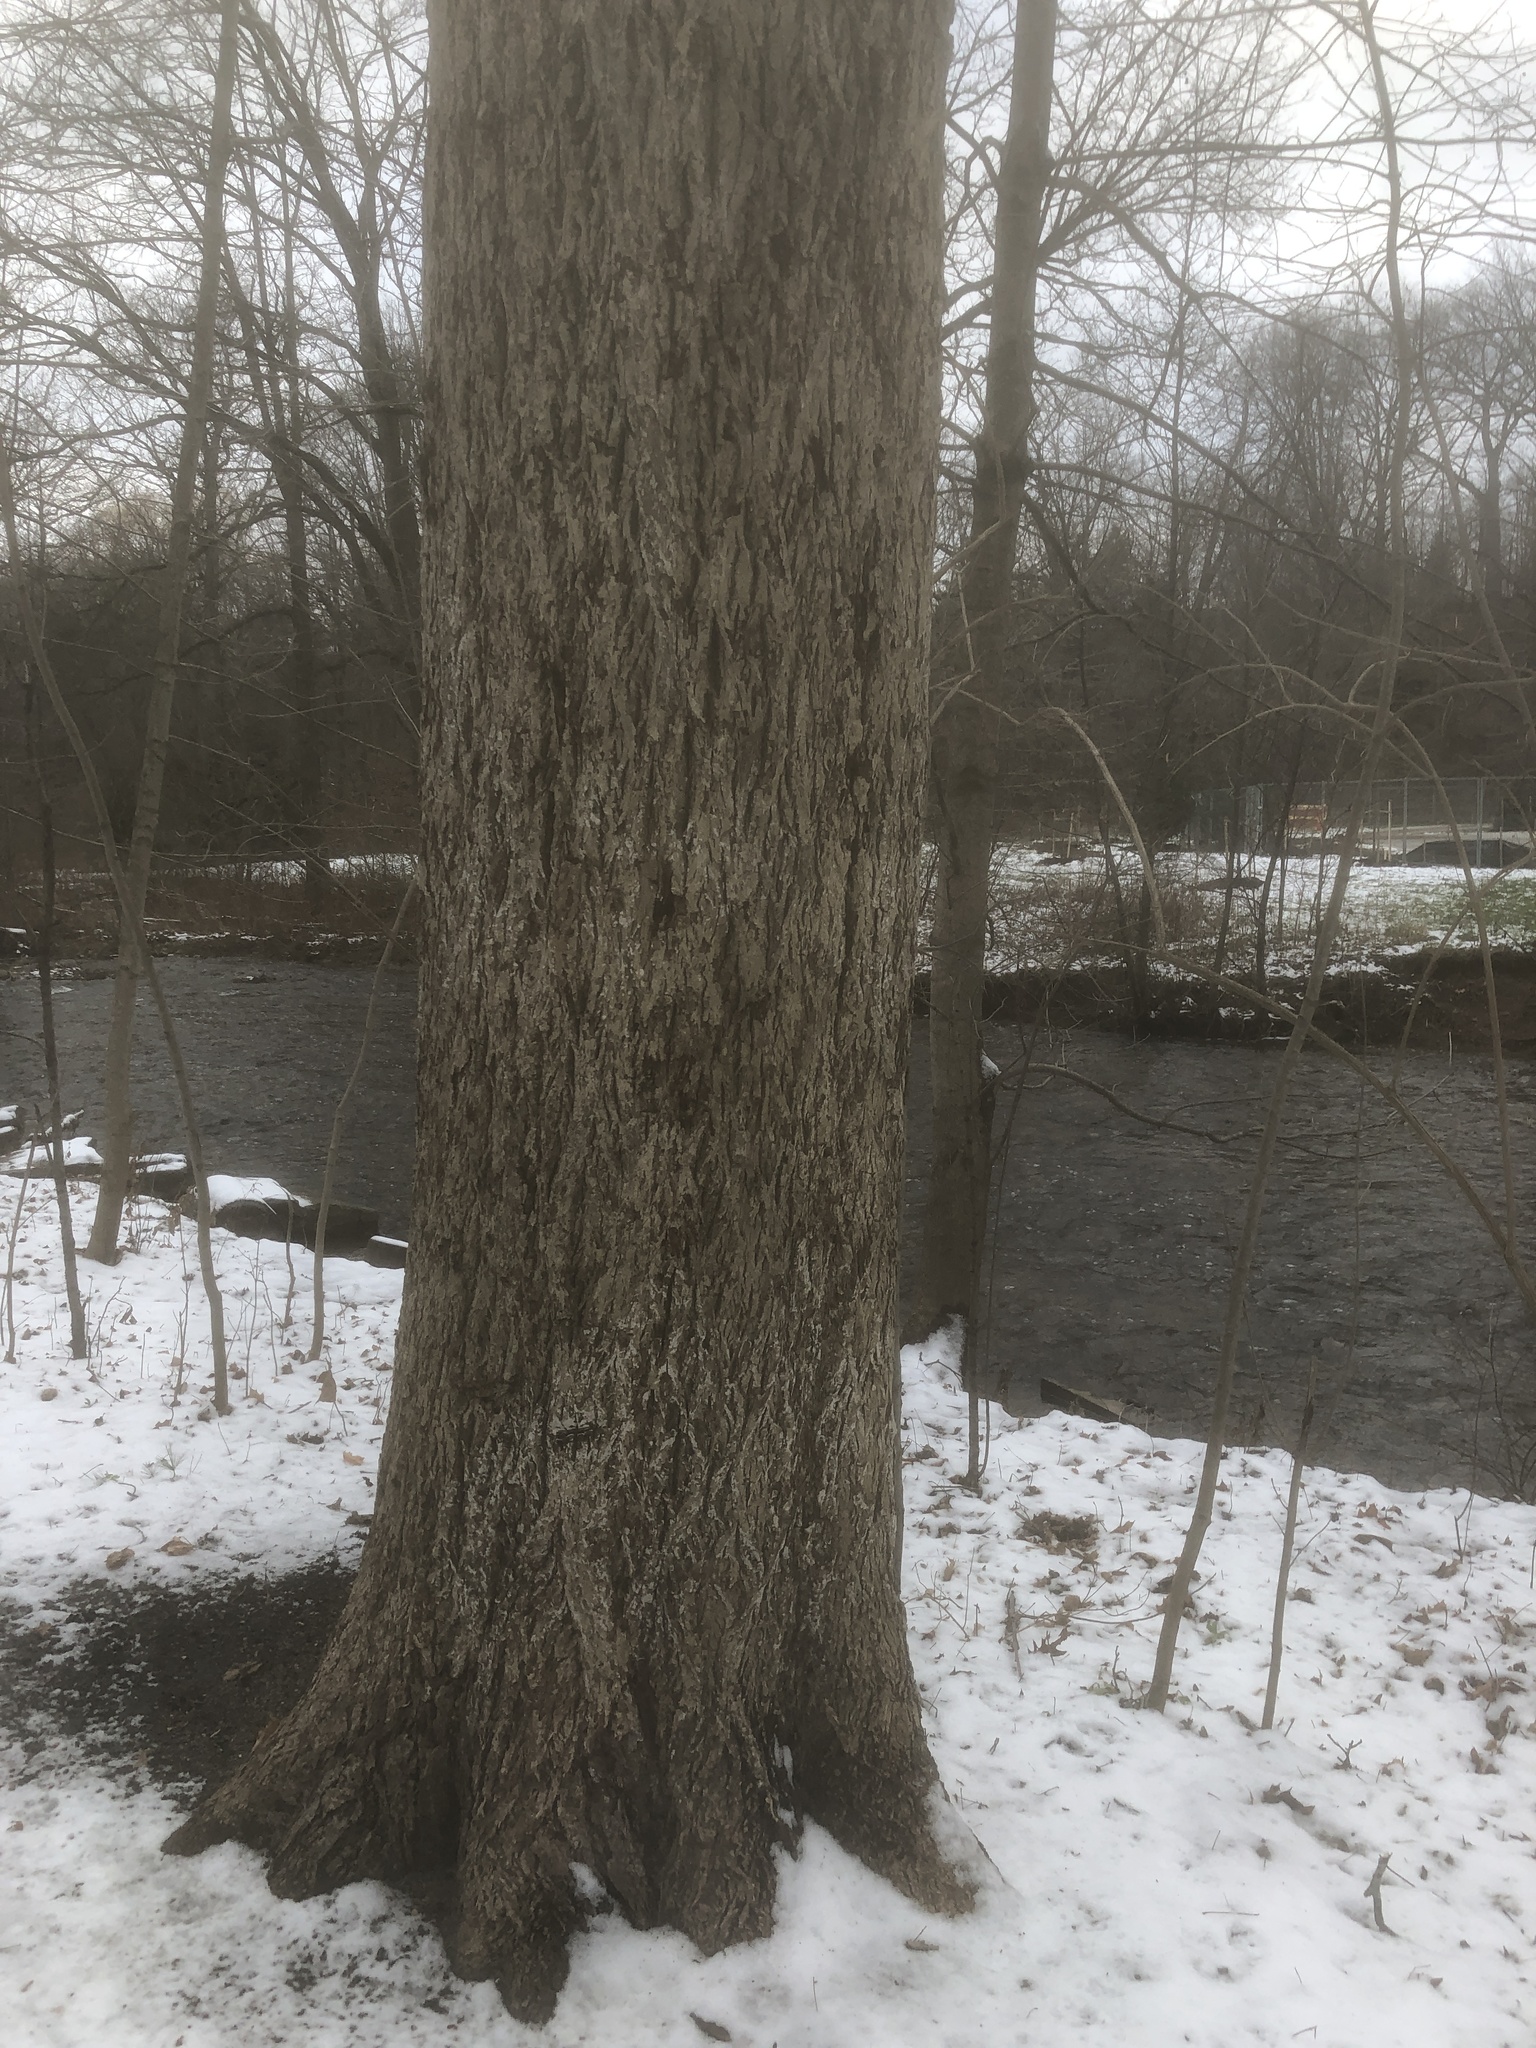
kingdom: Plantae
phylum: Tracheophyta
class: Magnoliopsida
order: Fagales
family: Juglandaceae
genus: Carya
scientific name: Carya cordiformis
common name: Bitternut hickory
